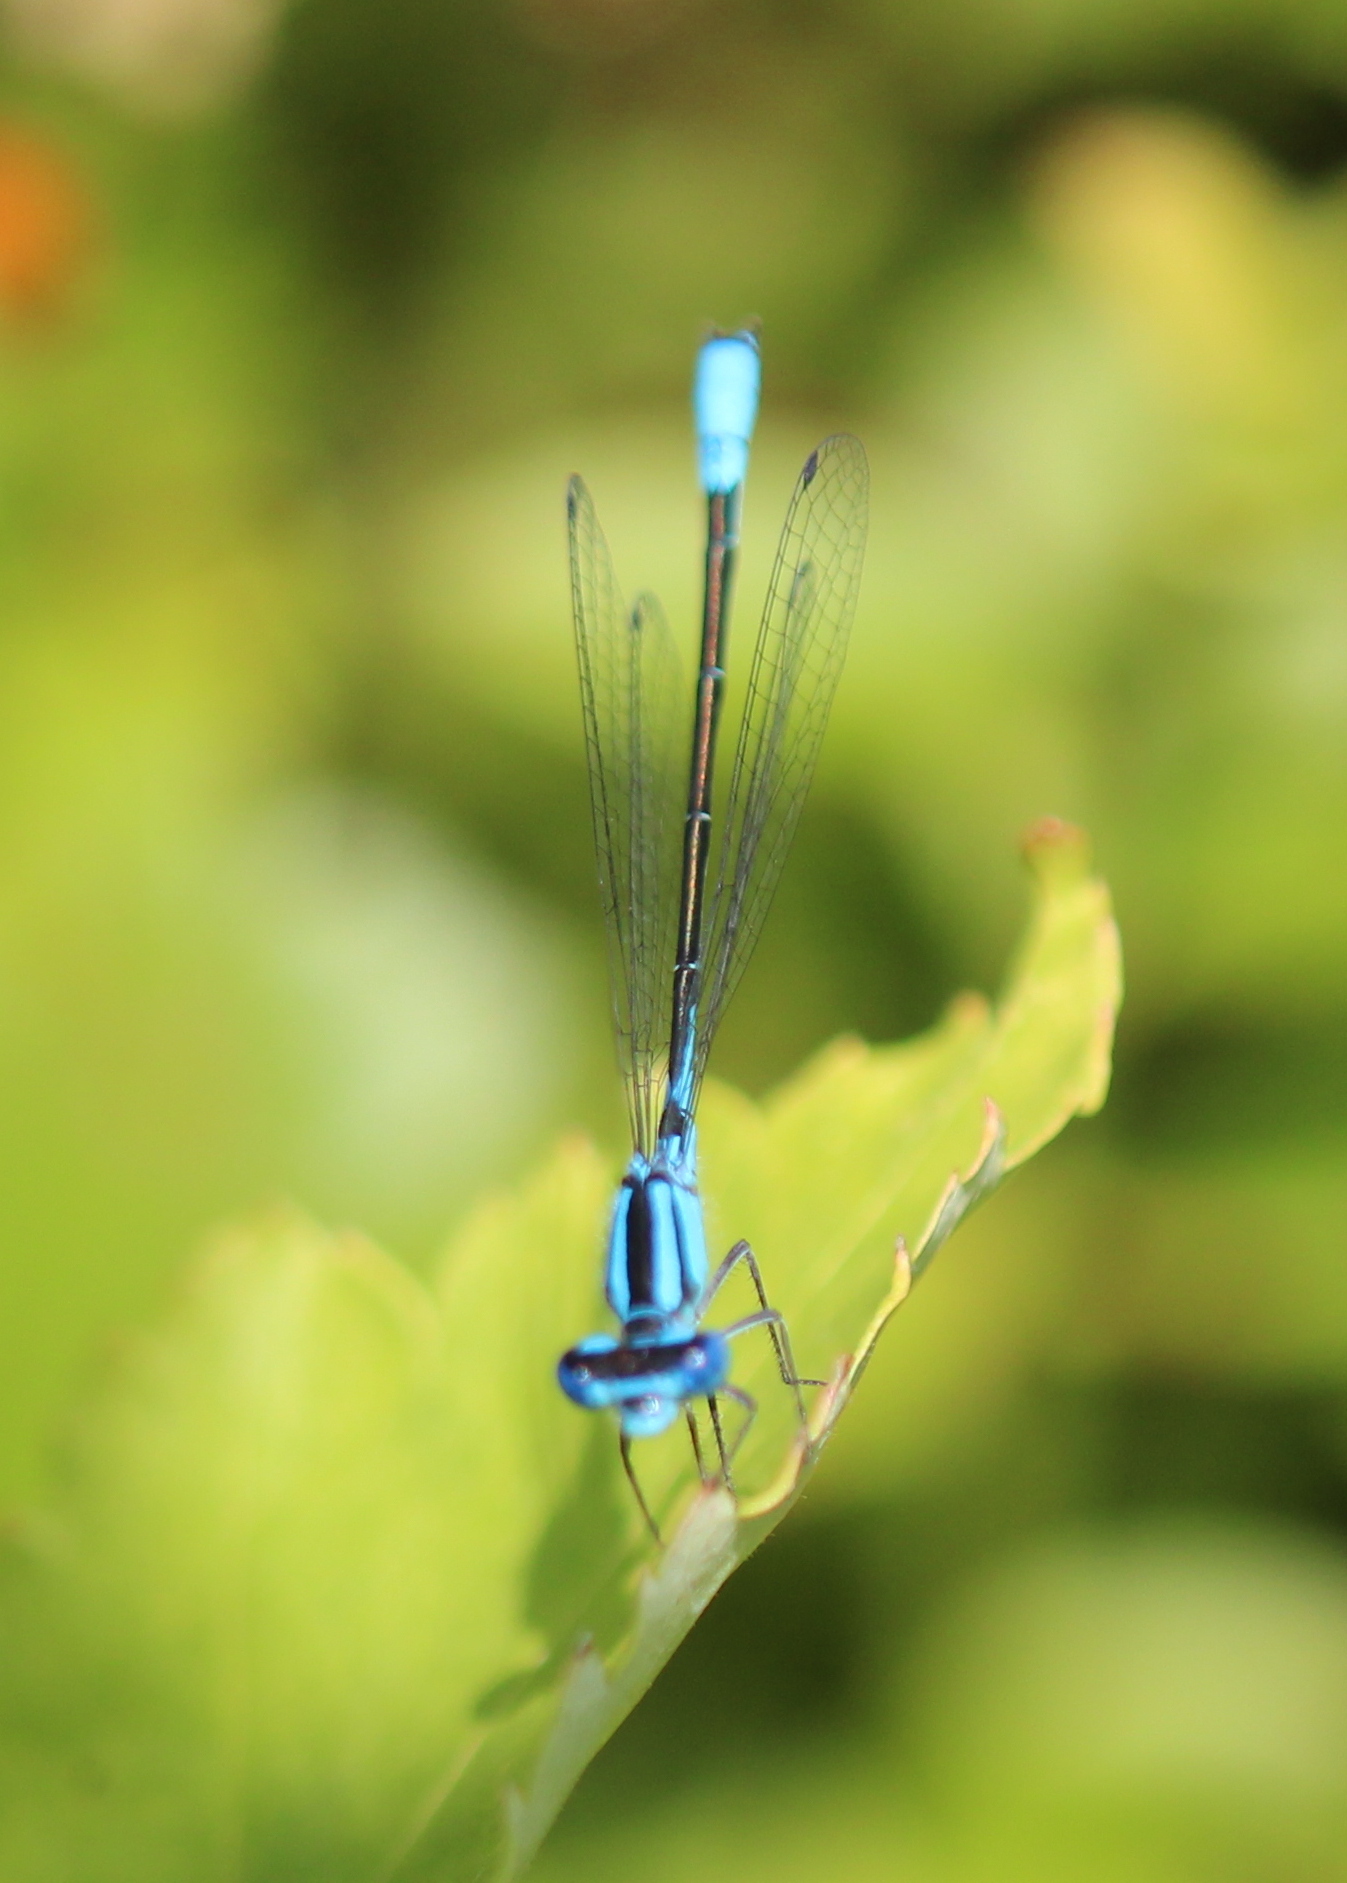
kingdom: Animalia
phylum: Arthropoda
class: Insecta
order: Odonata
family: Coenagrionidae
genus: Enallagma
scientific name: Enallagma aspersum
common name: Azure bluet
